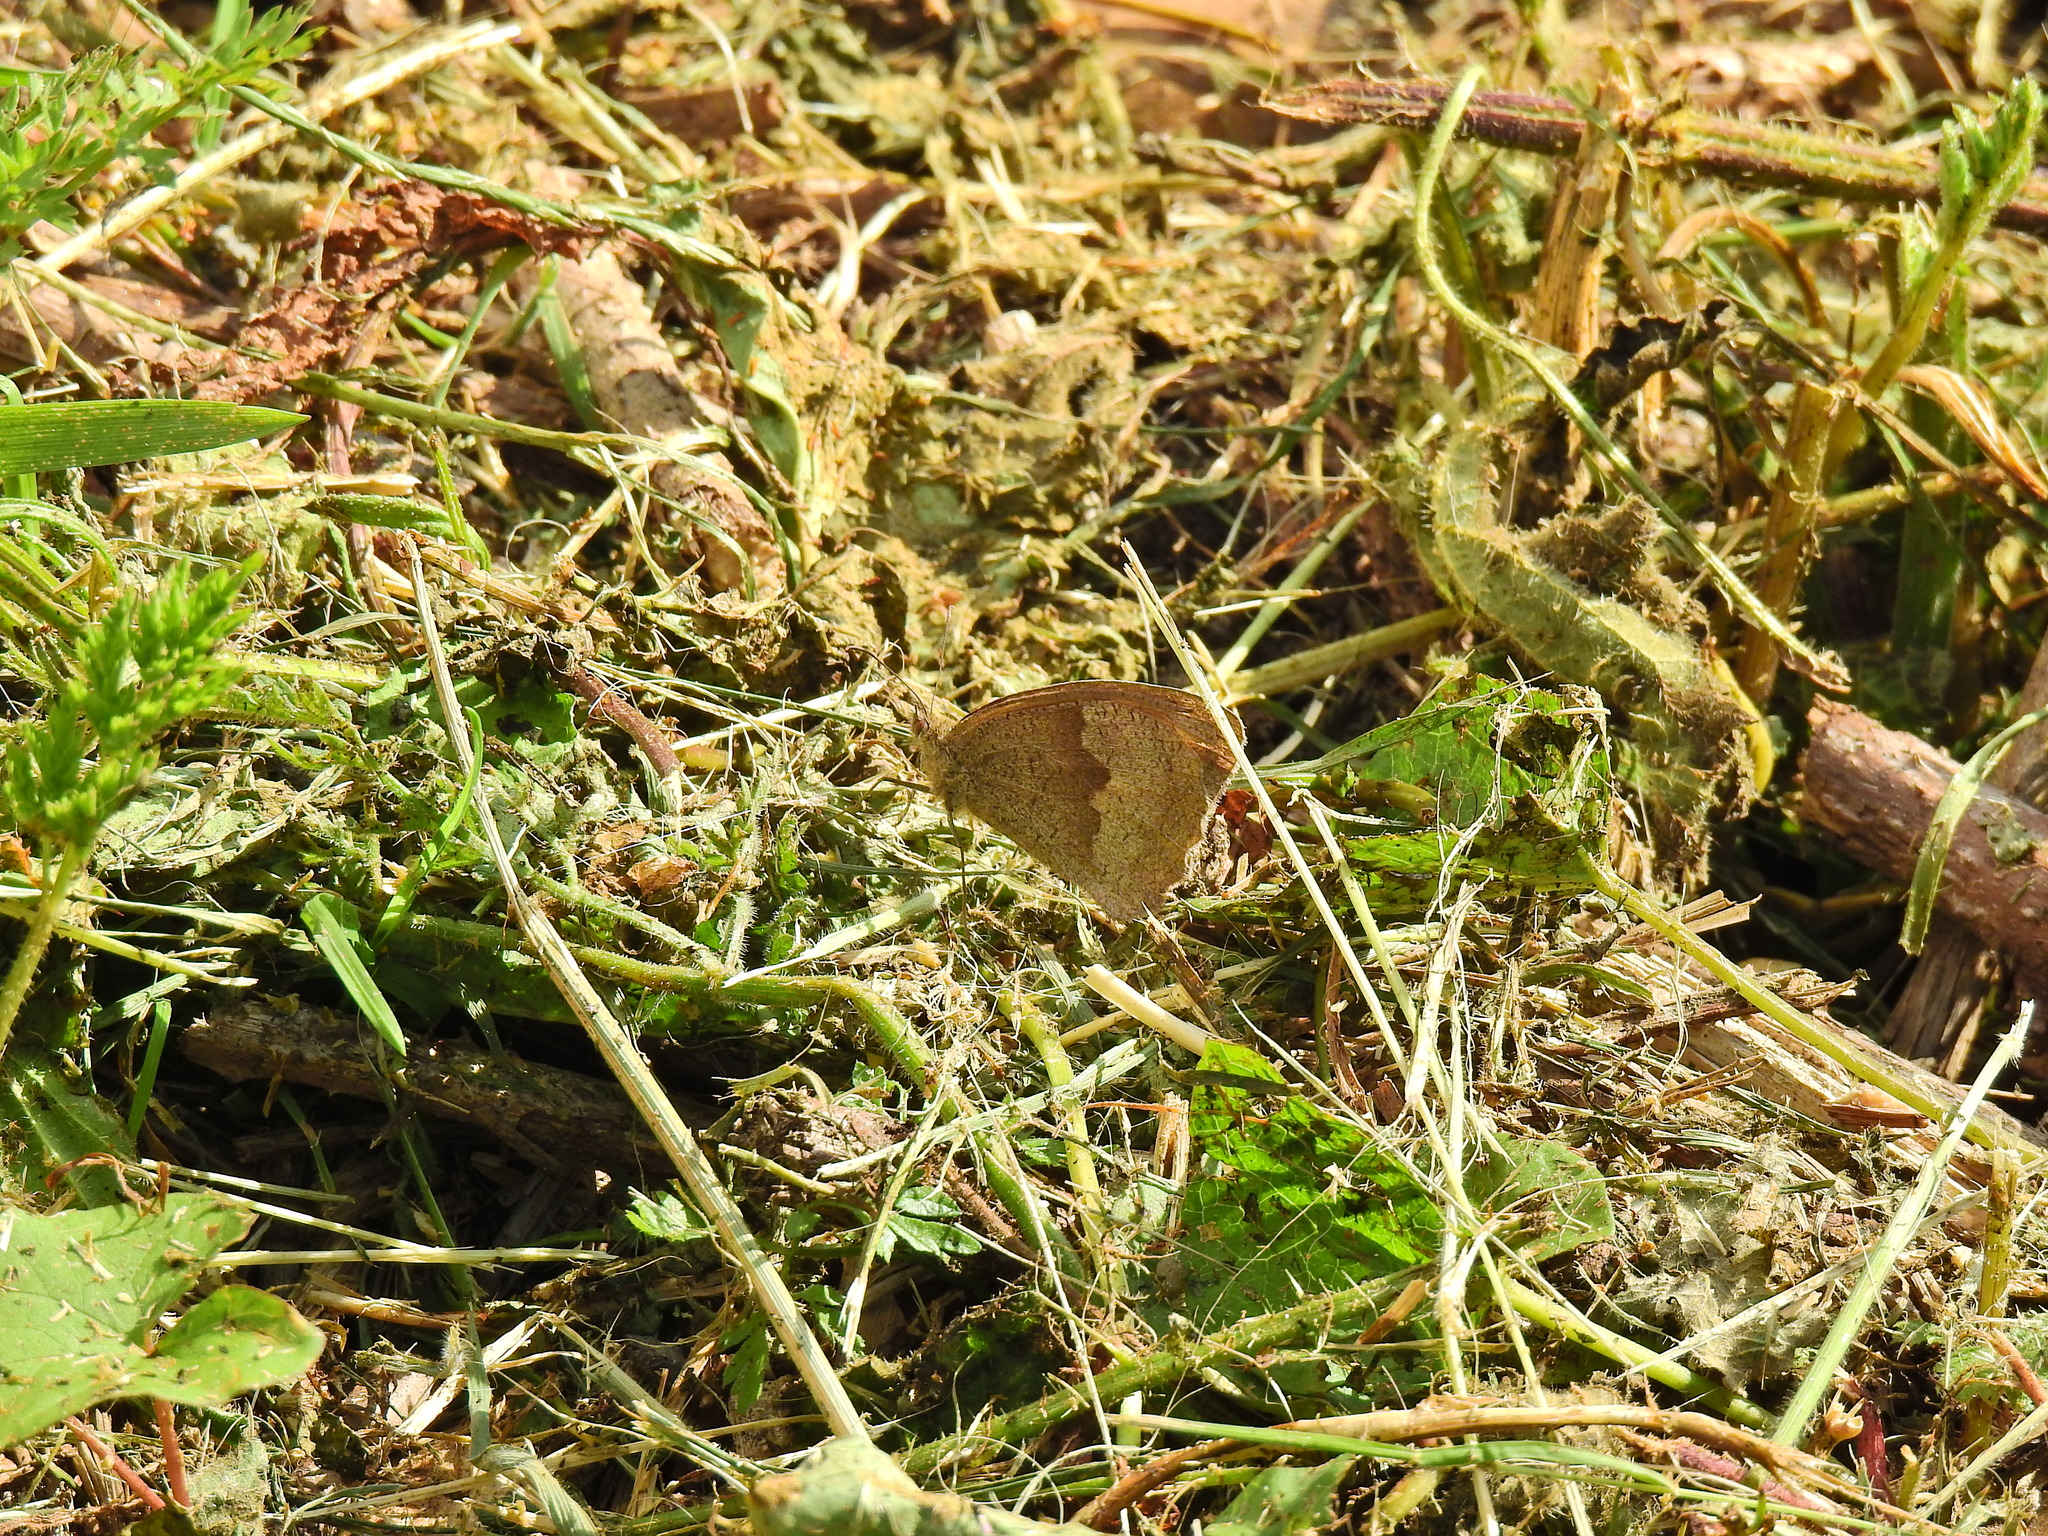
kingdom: Animalia
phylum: Arthropoda
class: Insecta
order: Lepidoptera
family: Nymphalidae
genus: Maniola
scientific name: Maniola jurtina
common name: Meadow brown
